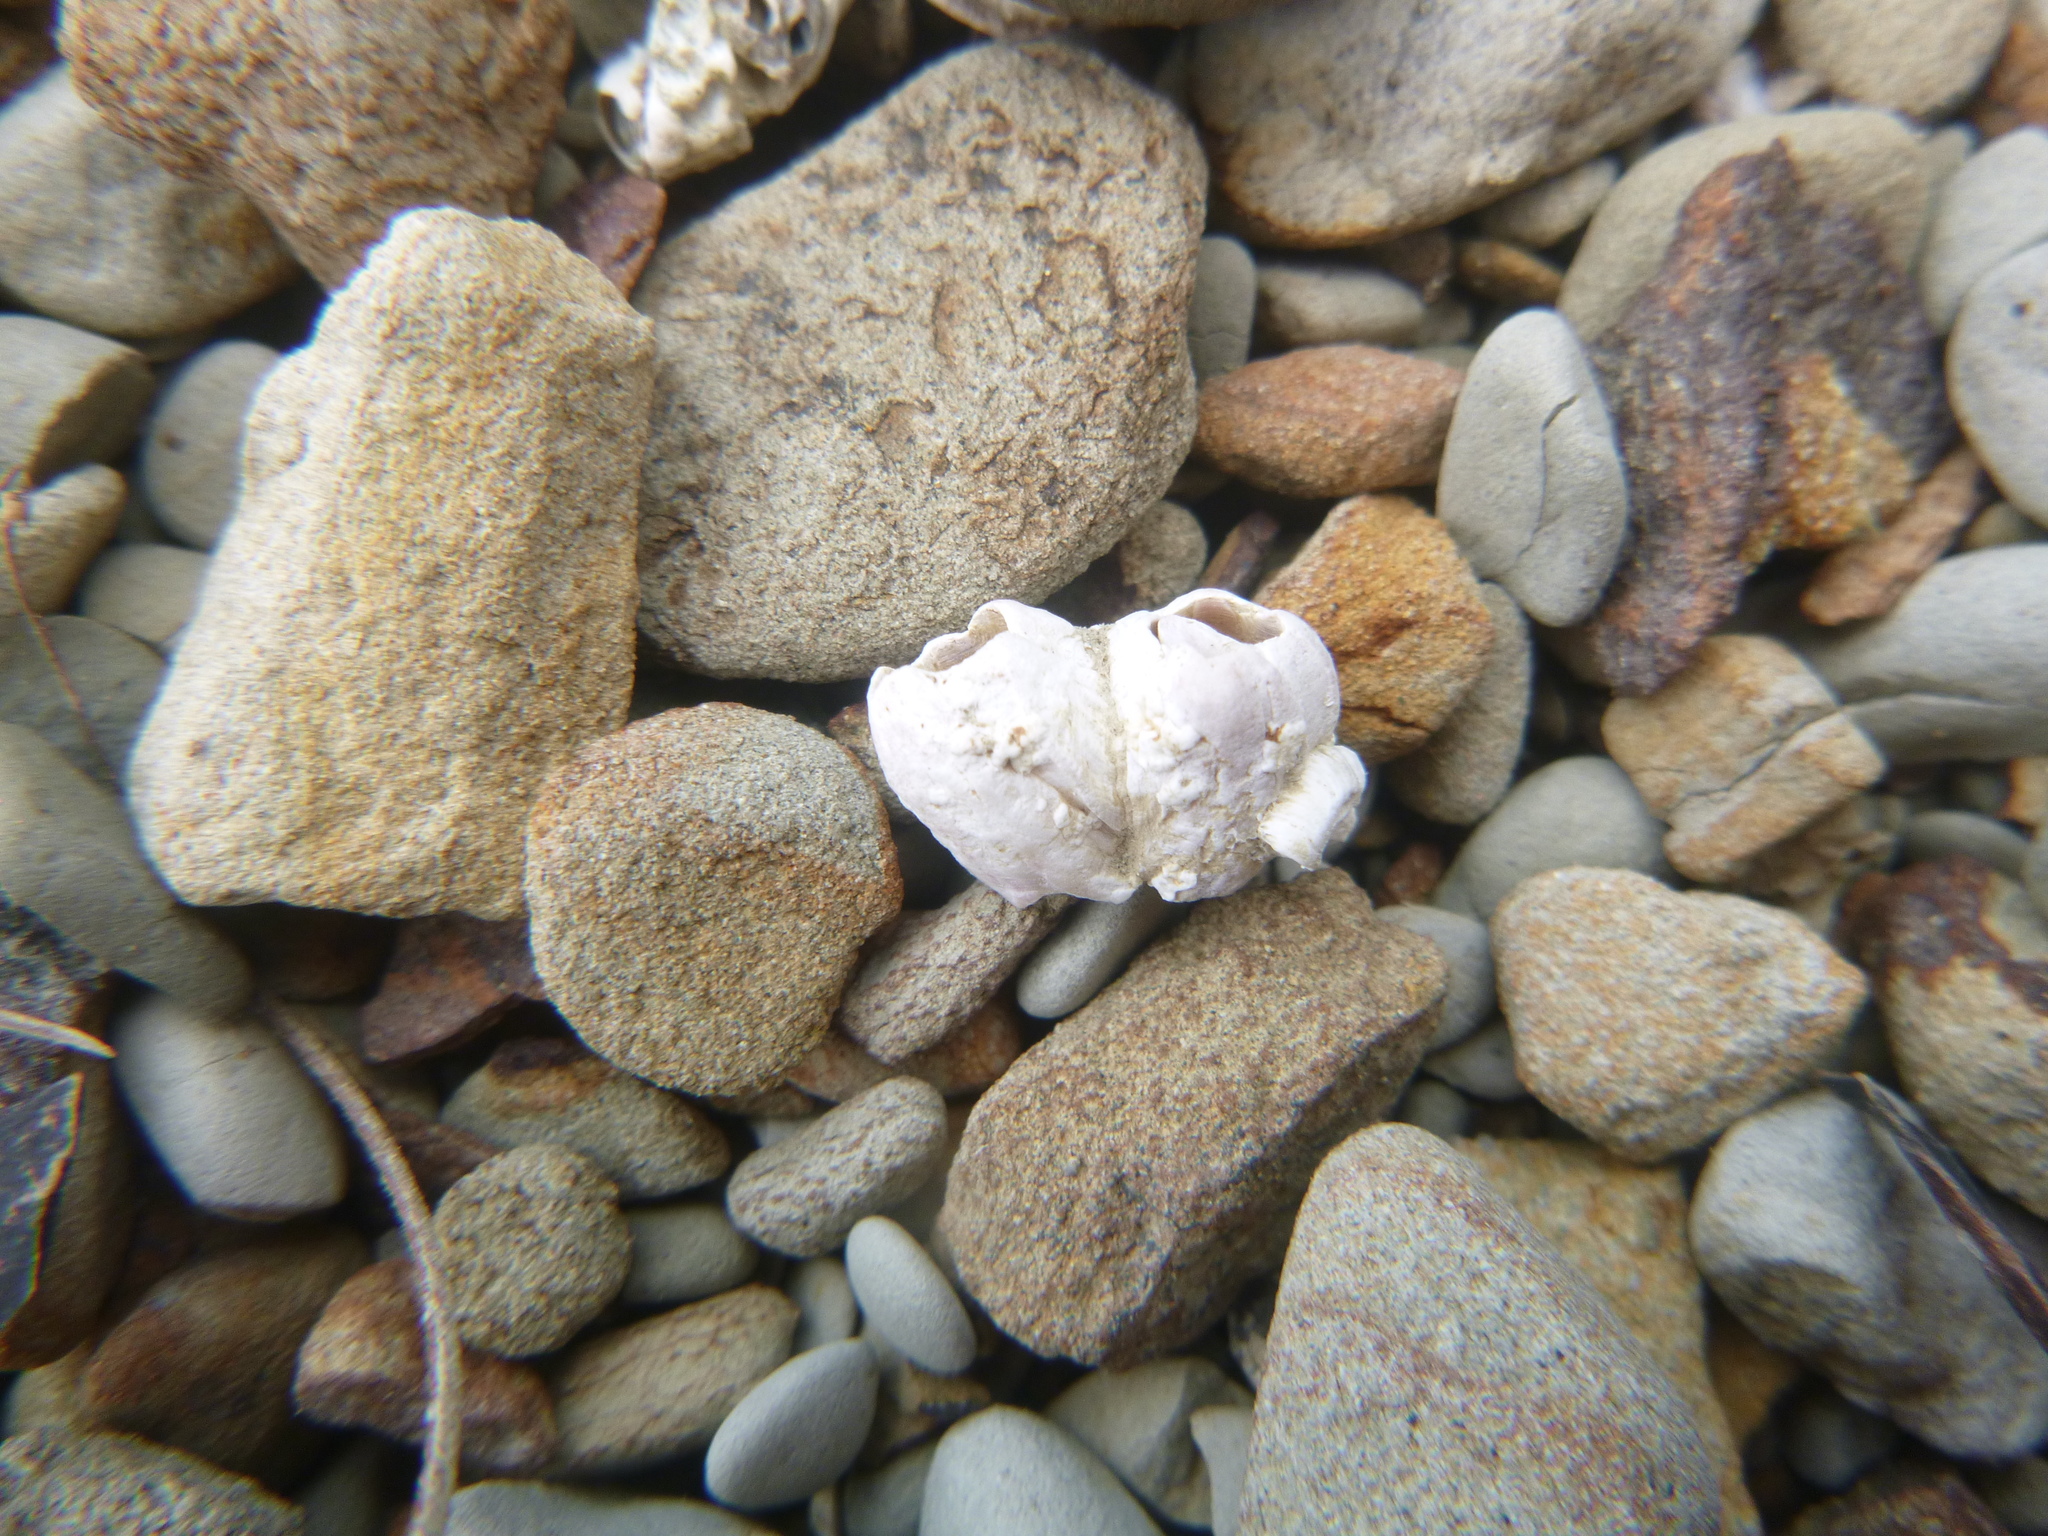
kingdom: Animalia
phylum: Arthropoda
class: Maxillopoda
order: Sessilia
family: Balanidae
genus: Austromegabalanus
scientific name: Austromegabalanus nigrescens
